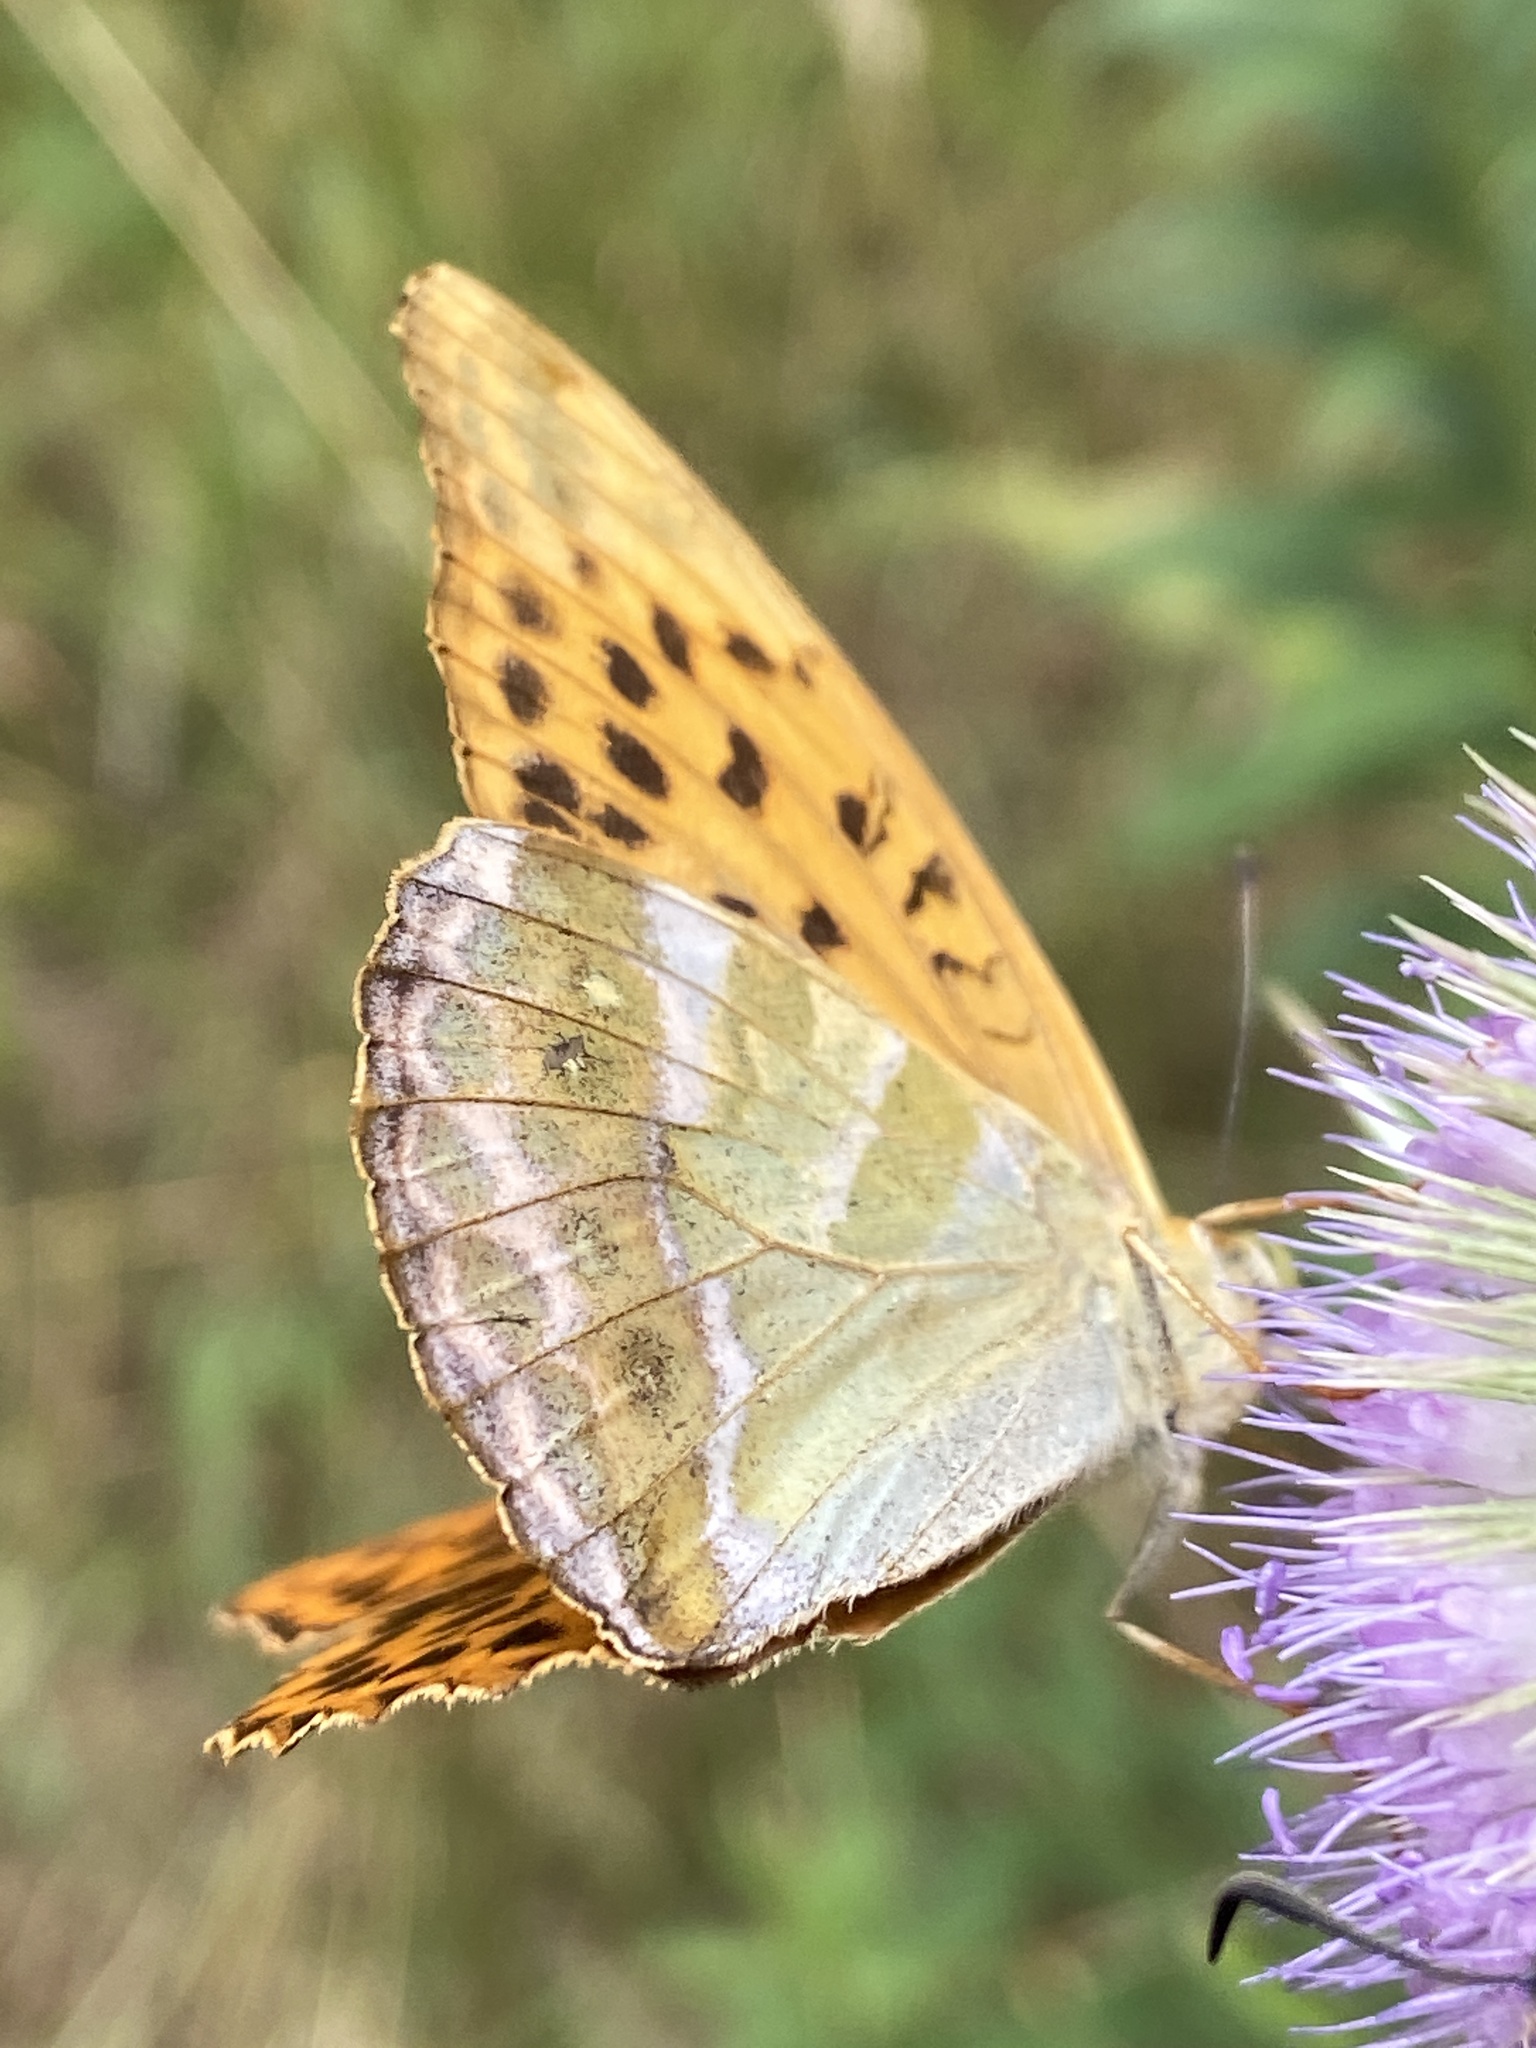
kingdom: Animalia
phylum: Arthropoda
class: Insecta
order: Lepidoptera
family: Nymphalidae
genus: Argynnis
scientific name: Argynnis paphia
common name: Silver-washed fritillary
